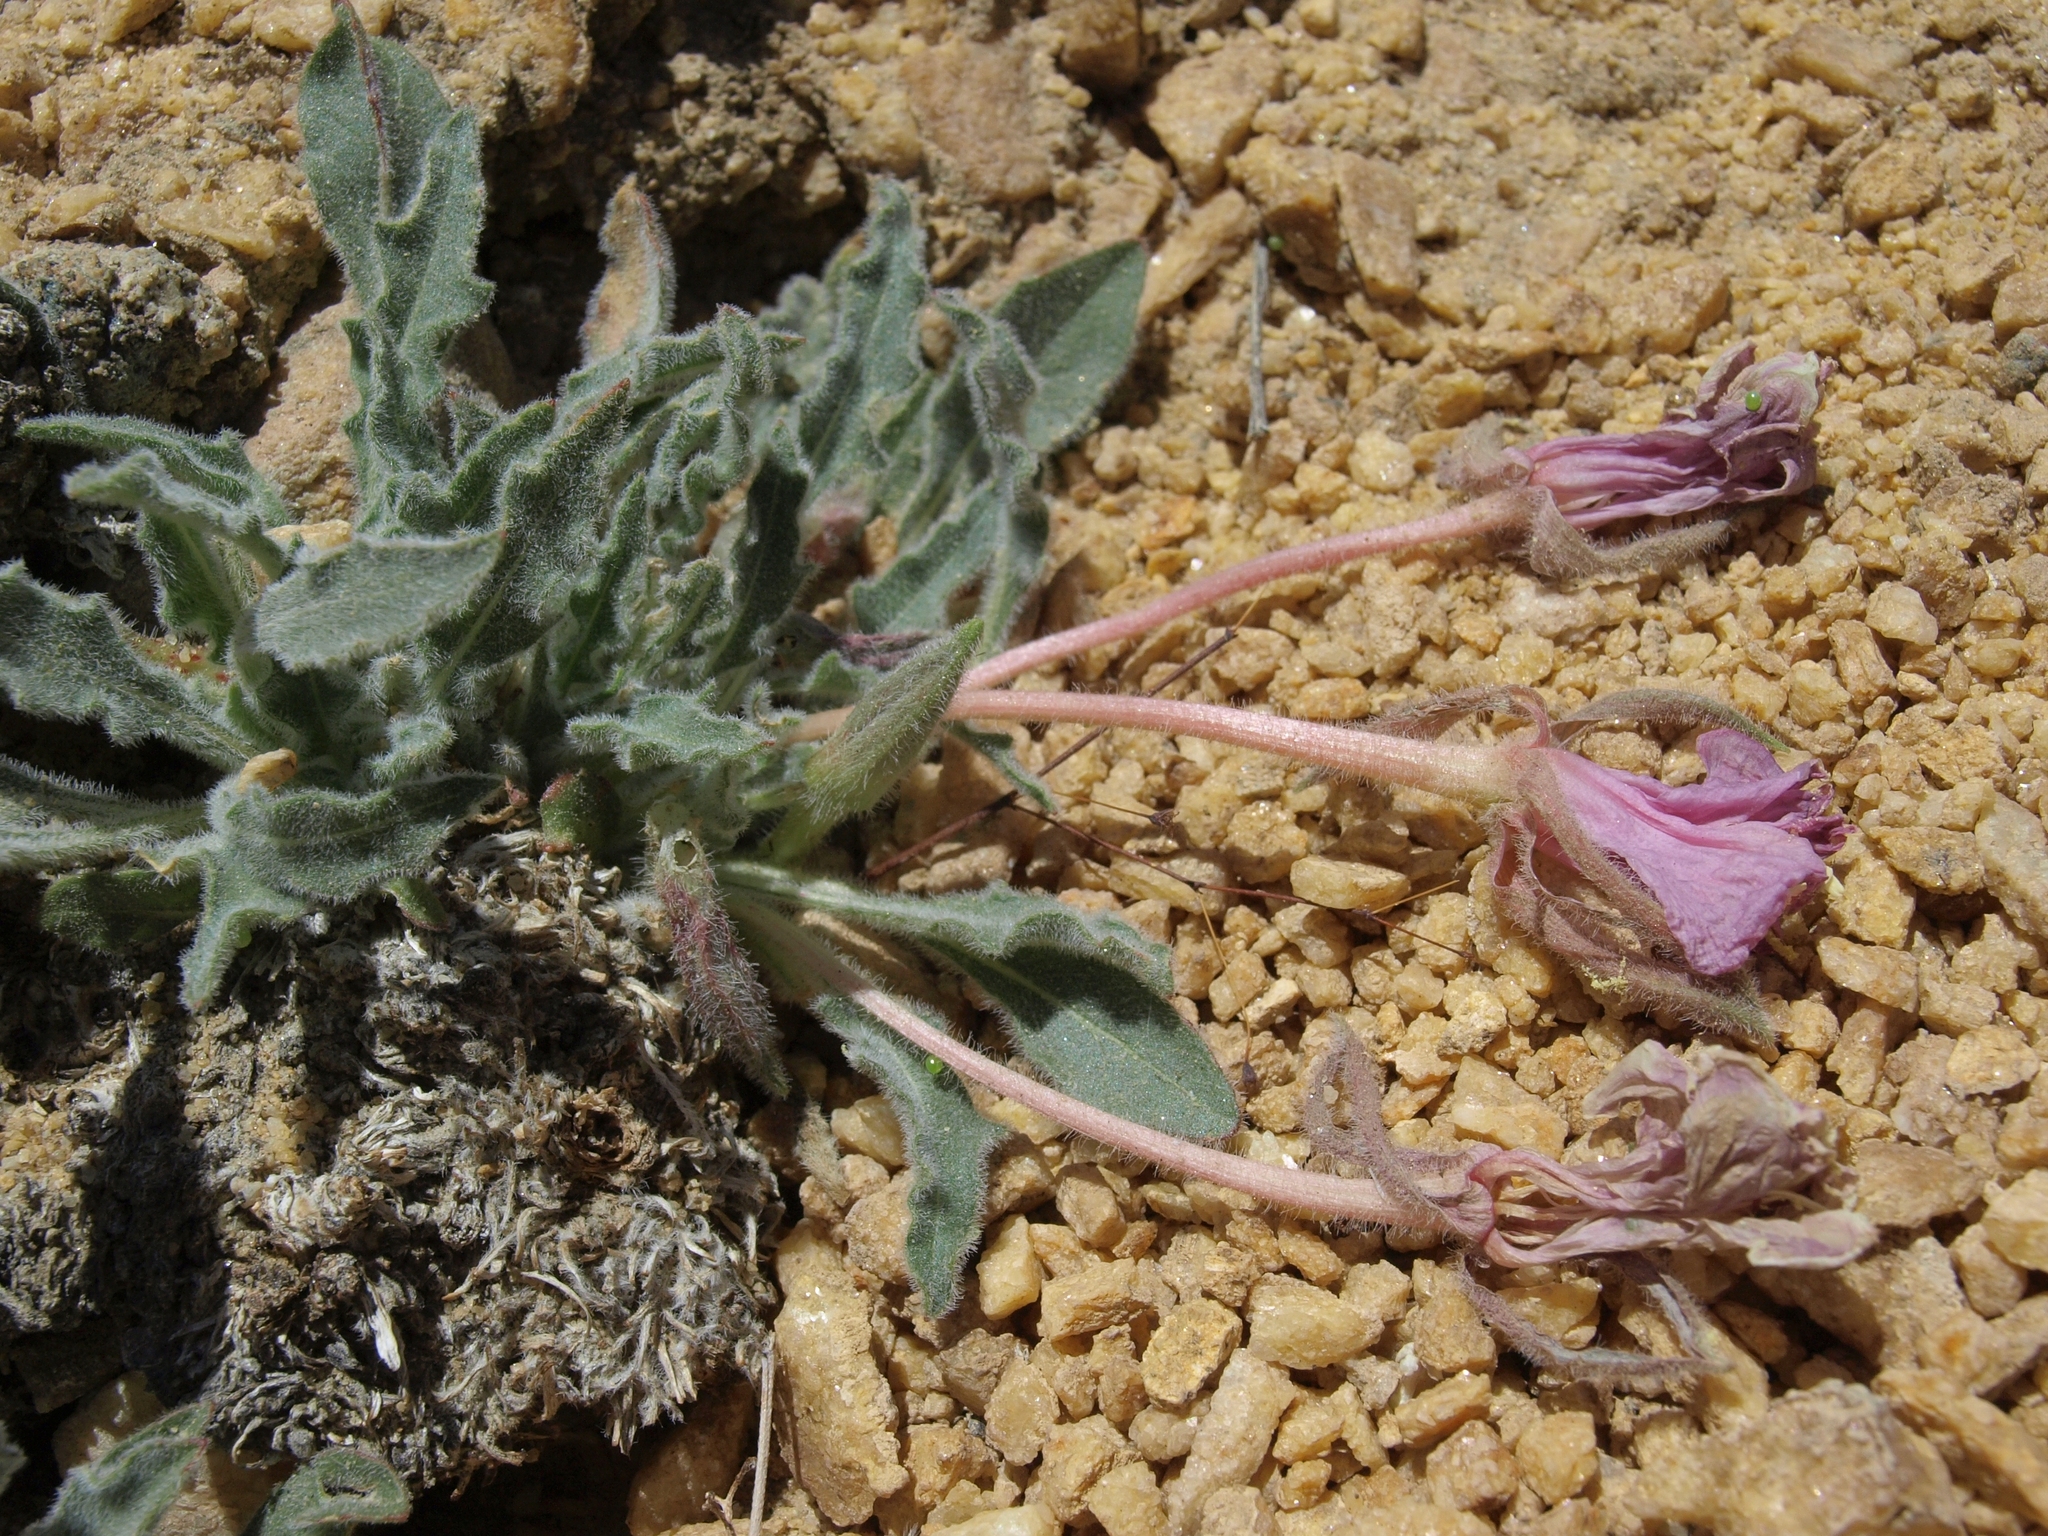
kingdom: Plantae
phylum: Tracheophyta
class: Magnoliopsida
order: Myrtales
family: Onagraceae
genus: Oenothera
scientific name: Oenothera cespitosa
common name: Tufted evening-primrose
